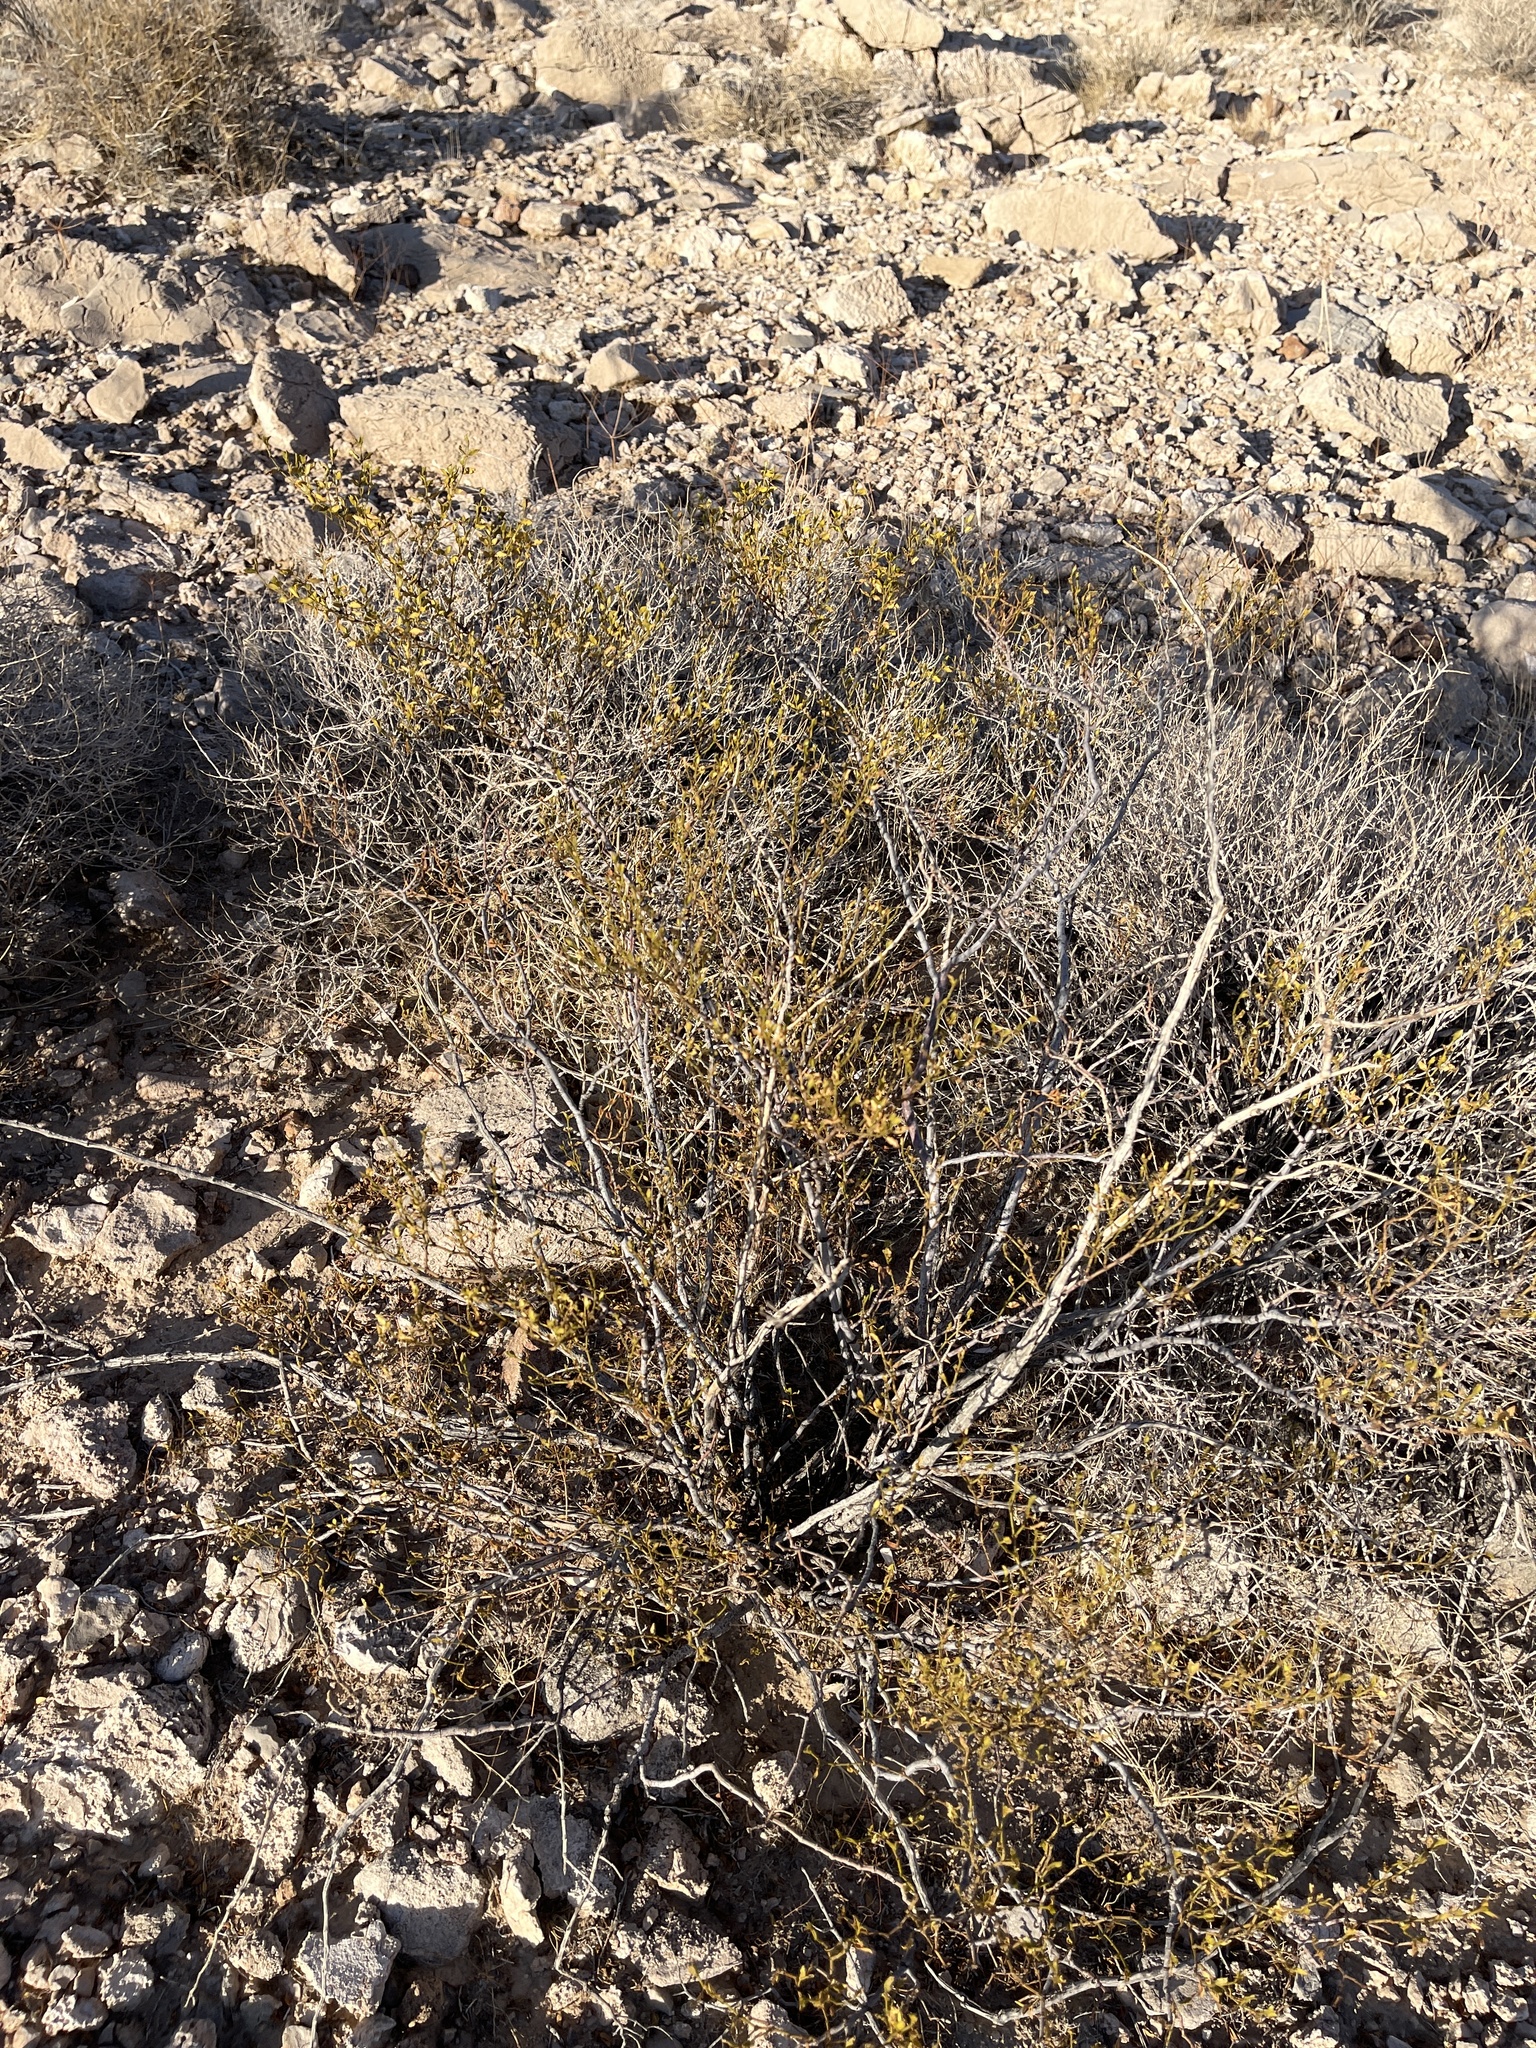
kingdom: Plantae
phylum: Tracheophyta
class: Magnoliopsida
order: Zygophyllales
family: Zygophyllaceae
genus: Larrea
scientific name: Larrea tridentata
